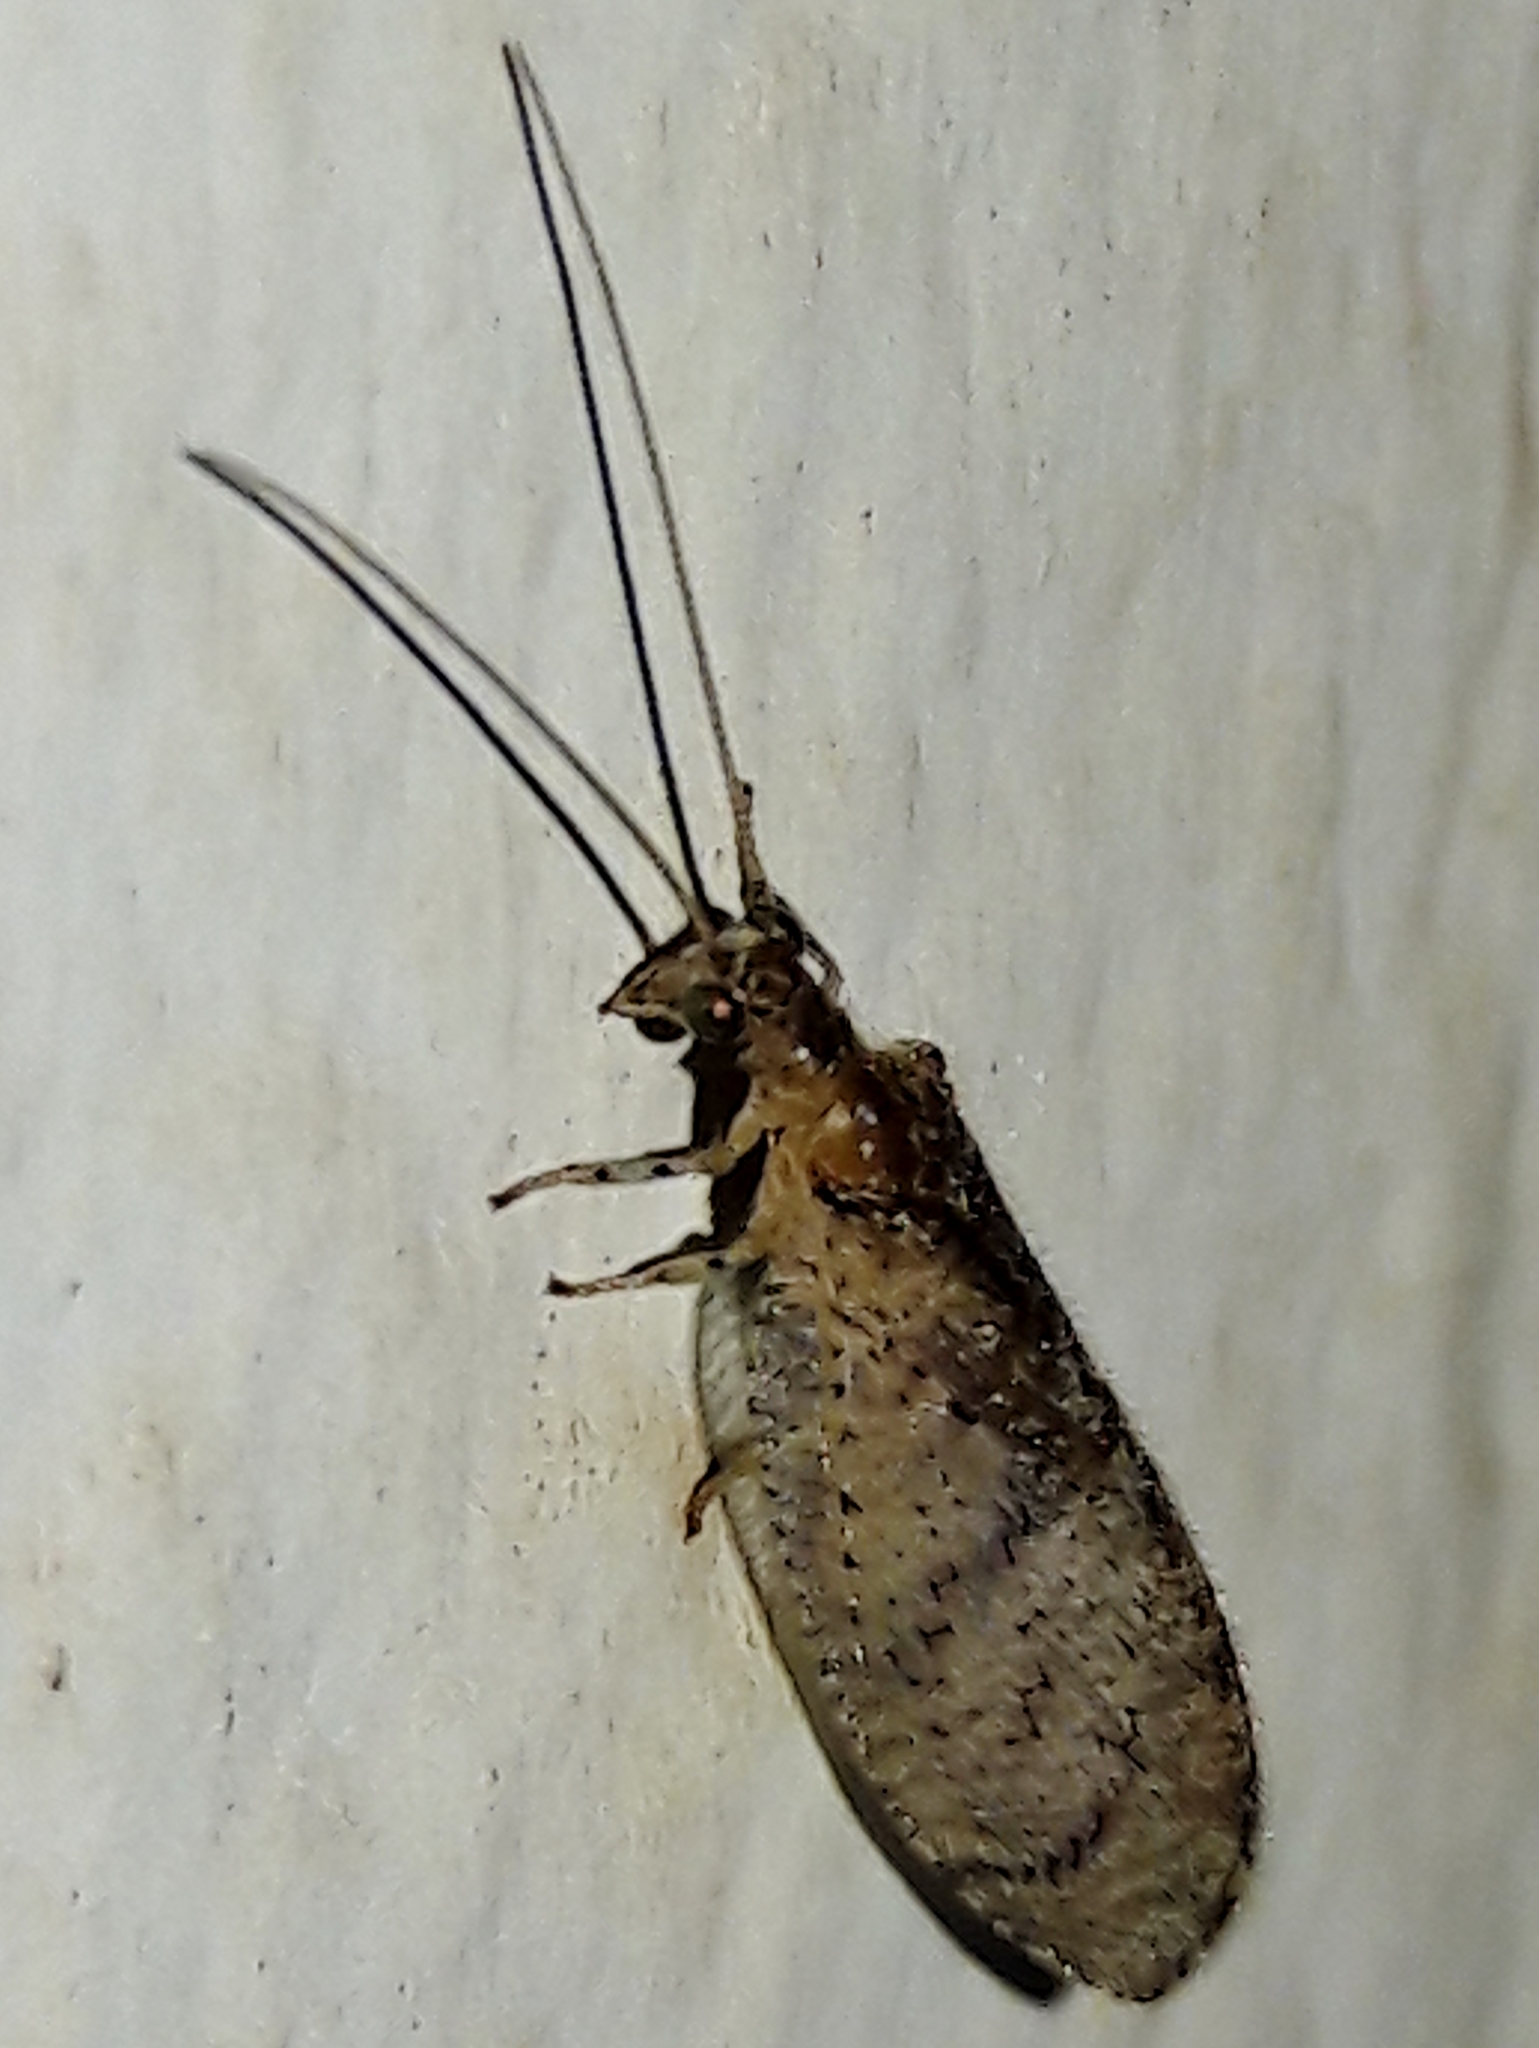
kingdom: Animalia
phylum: Arthropoda
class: Insecta
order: Neuroptera
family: Hemerobiidae
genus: Nusalala
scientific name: Nusalala tessellata
